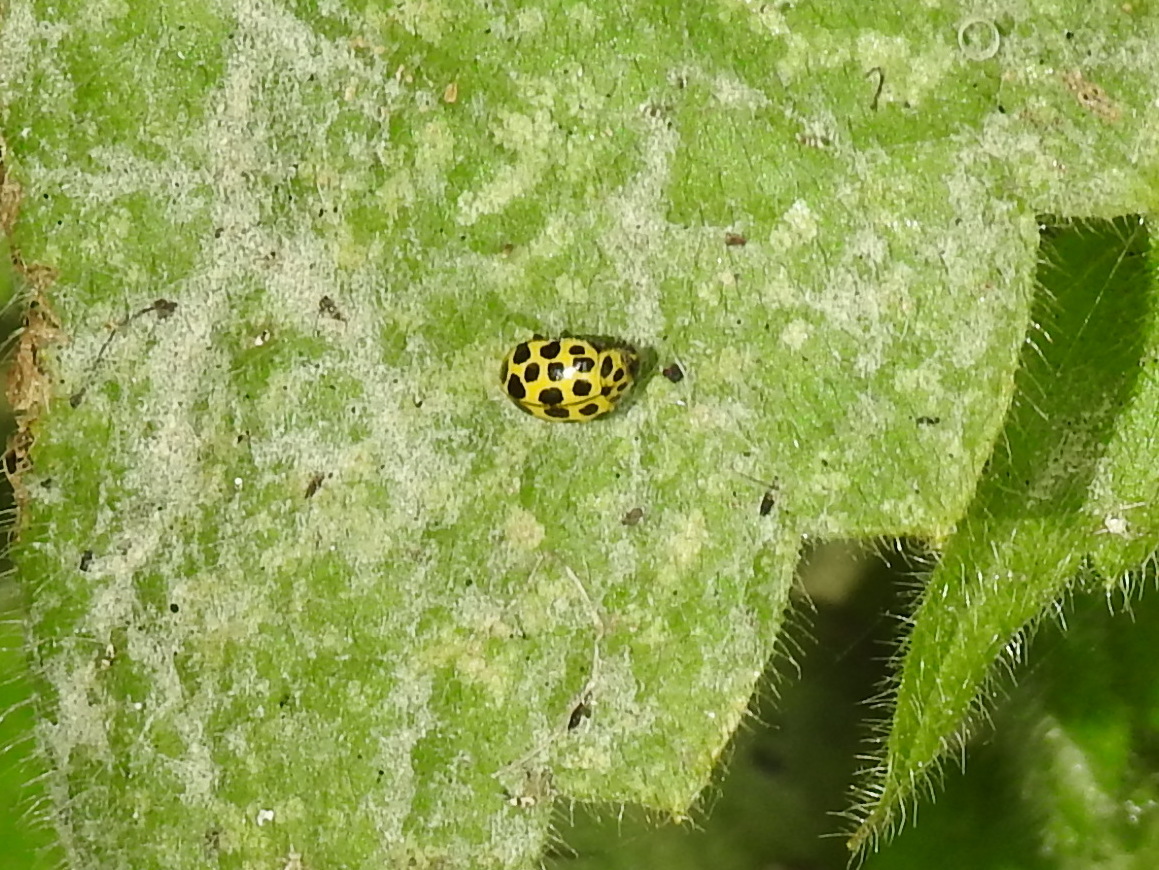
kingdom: Animalia
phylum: Arthropoda
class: Insecta
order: Coleoptera
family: Coccinellidae
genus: Psyllobora
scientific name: Psyllobora vigintiduopunctata
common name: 22-spot ladybird
